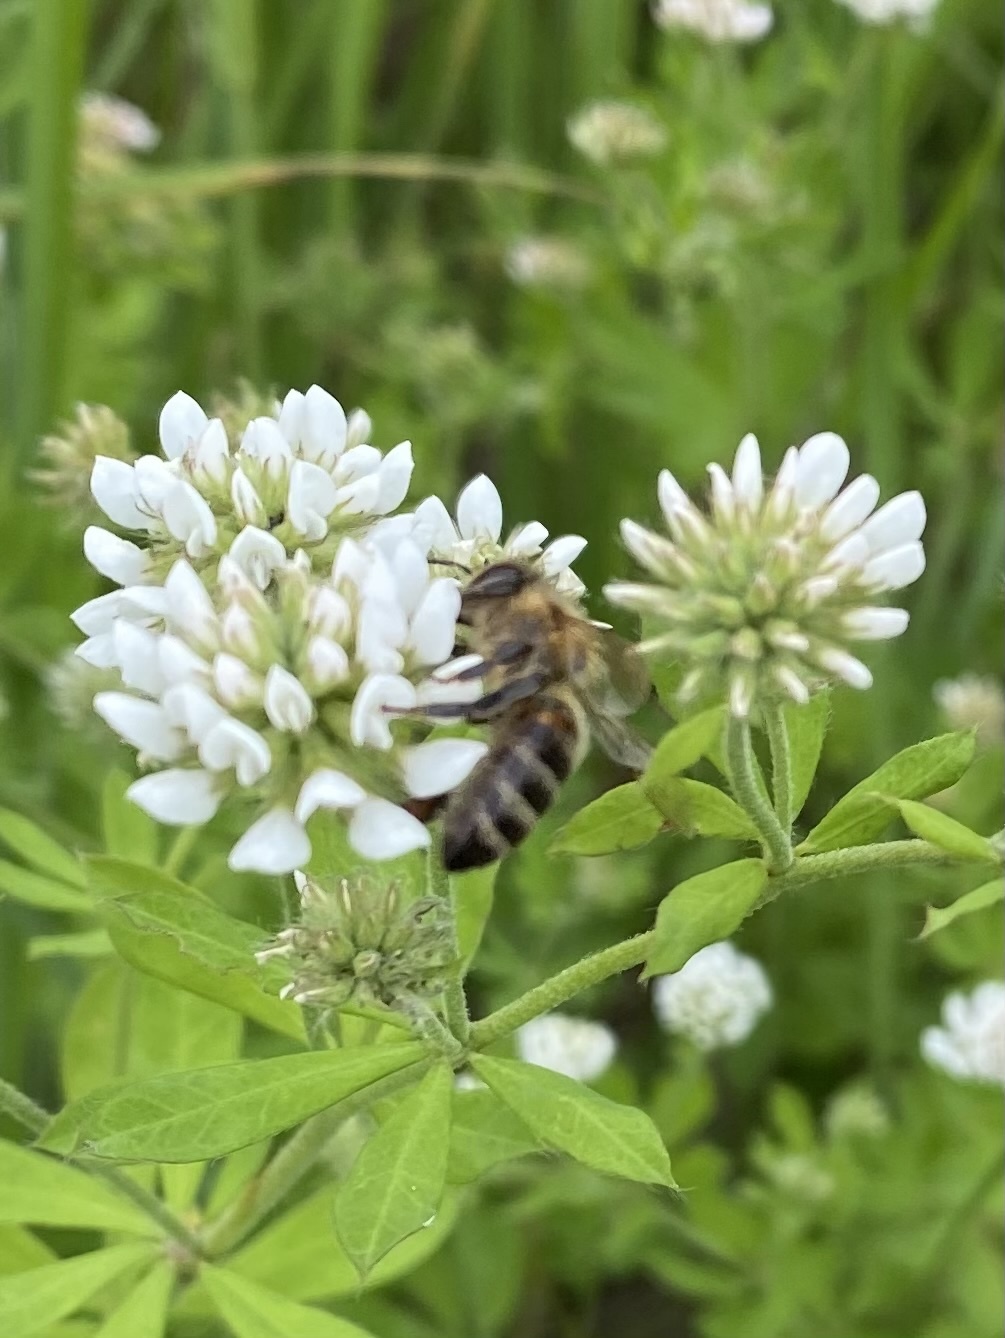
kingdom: Animalia
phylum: Arthropoda
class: Insecta
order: Hymenoptera
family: Apidae
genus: Apis
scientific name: Apis mellifera
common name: Honey bee
